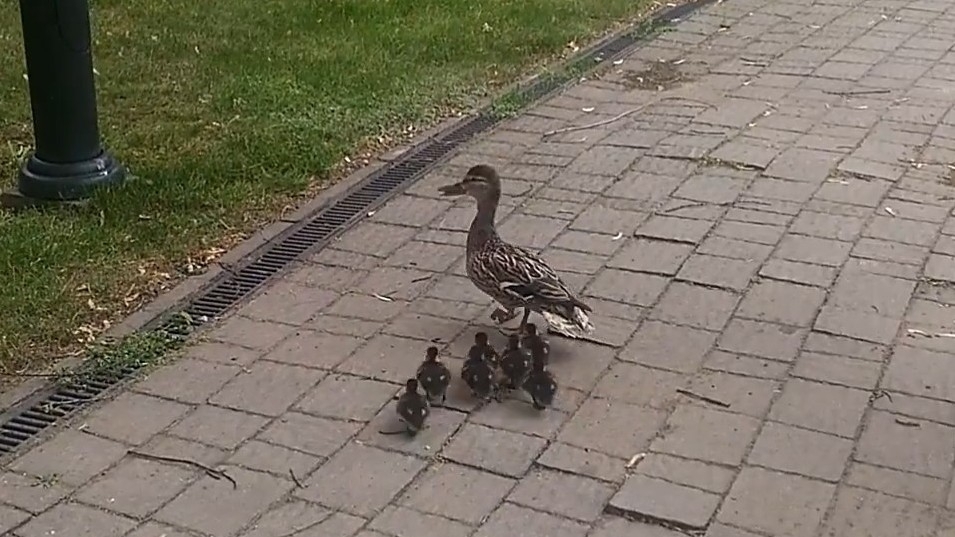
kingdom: Animalia
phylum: Chordata
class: Aves
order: Anseriformes
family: Anatidae
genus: Anas
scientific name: Anas platyrhynchos
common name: Mallard
